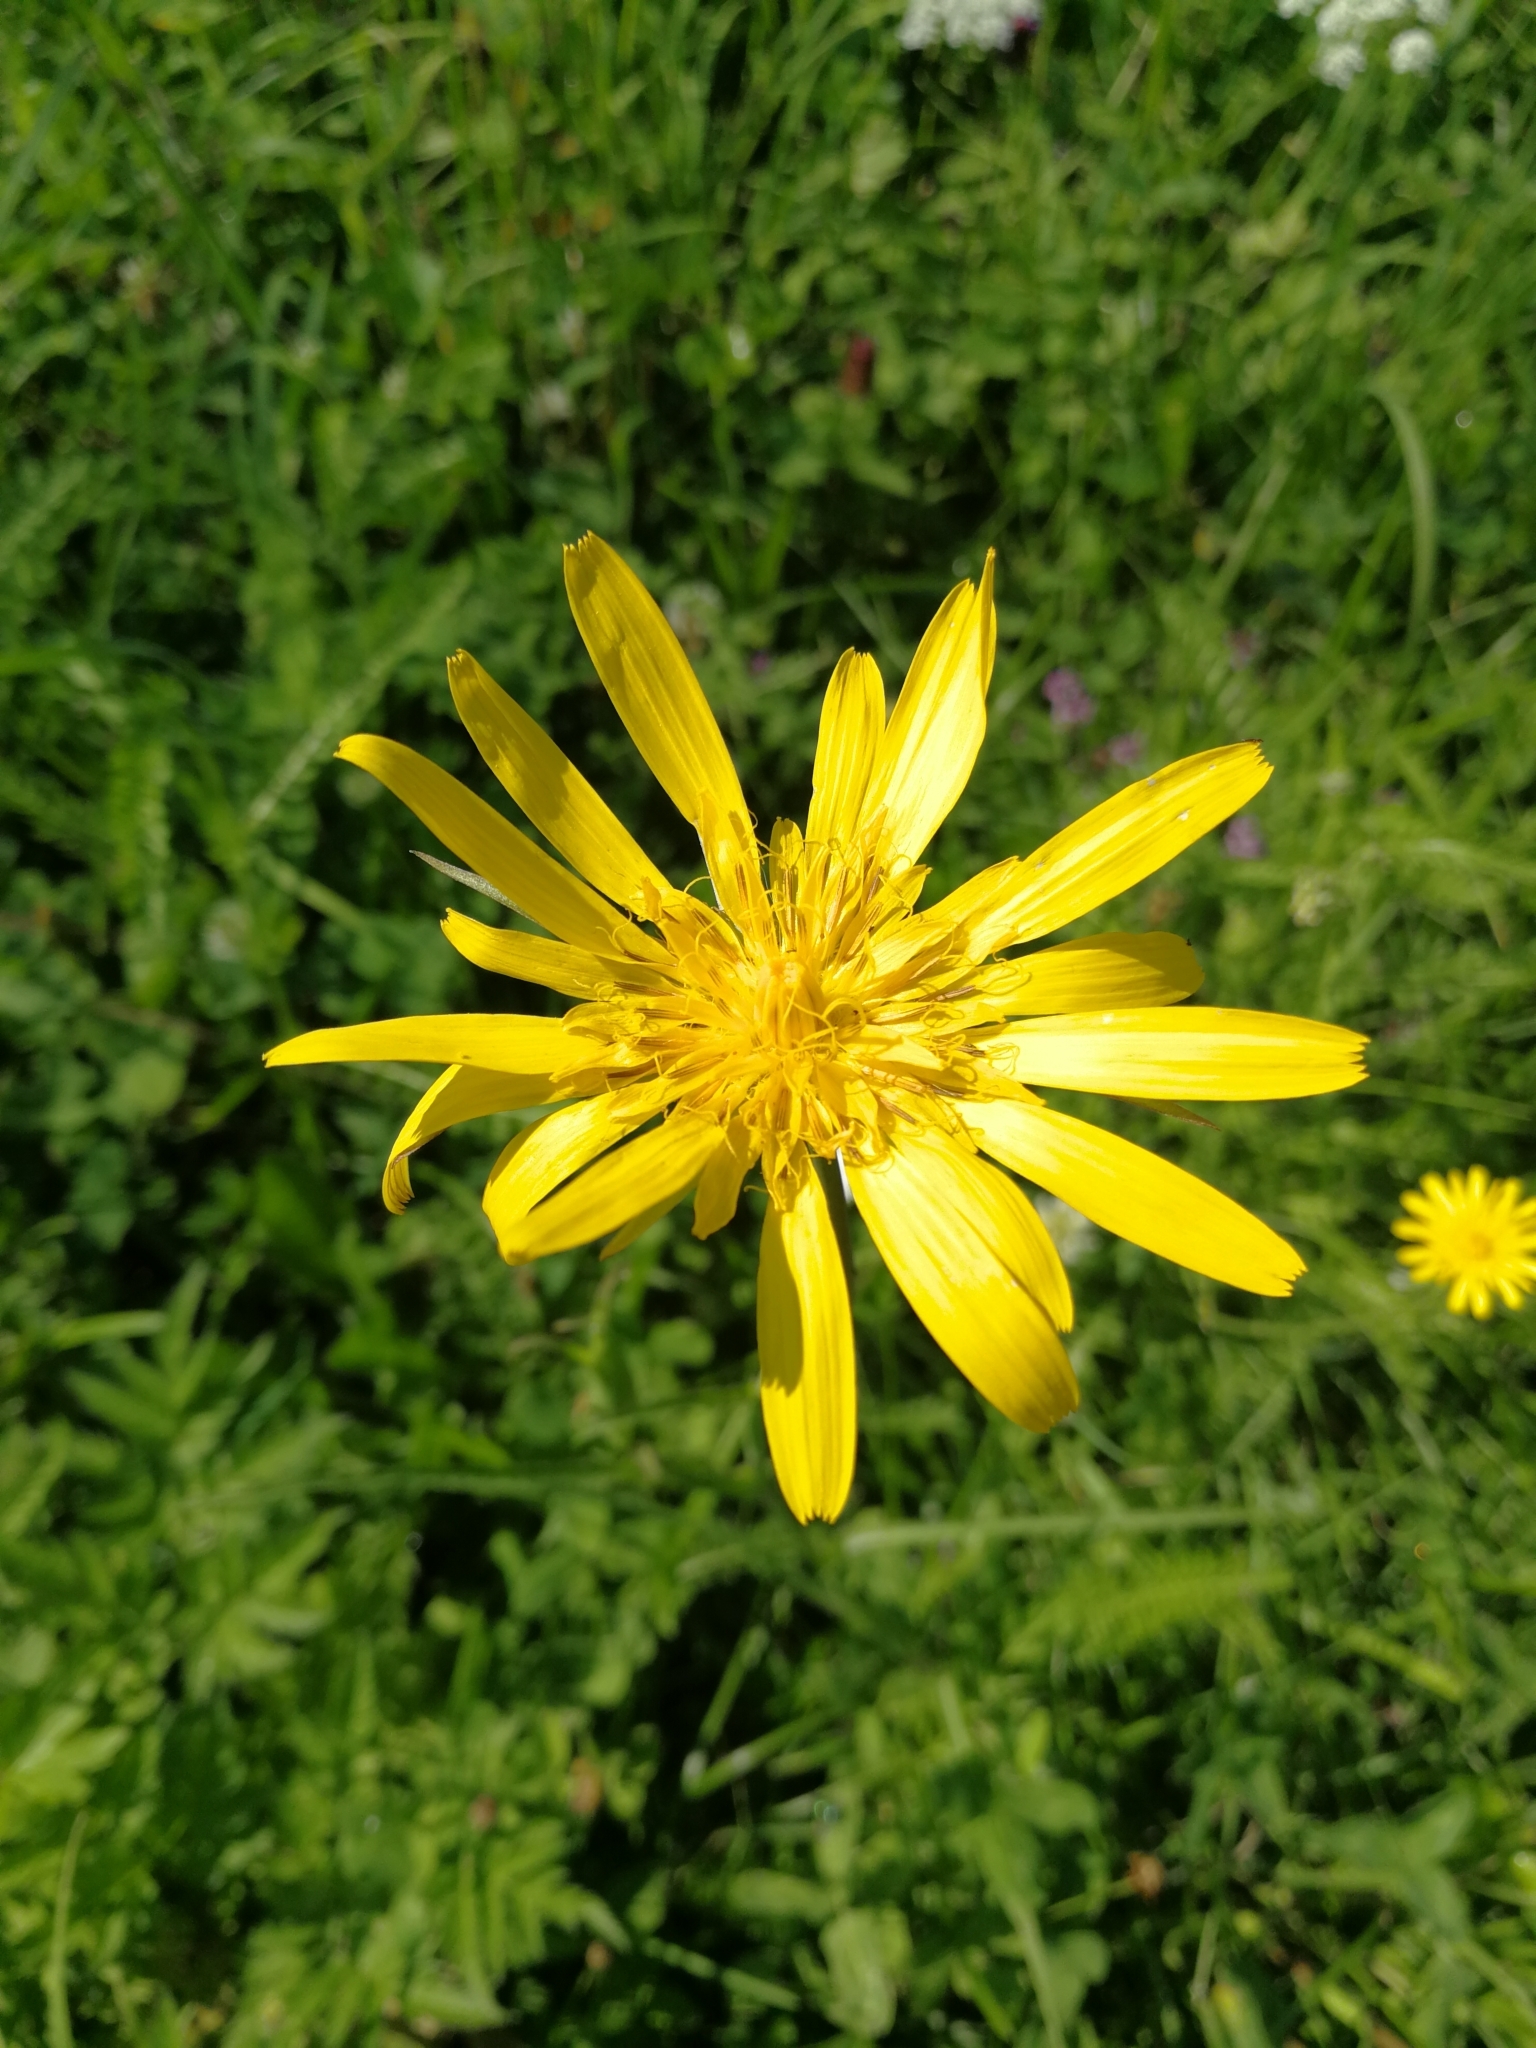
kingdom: Plantae
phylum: Tracheophyta
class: Magnoliopsida
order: Asterales
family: Asteraceae
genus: Tragopogon
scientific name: Tragopogon orientalis
